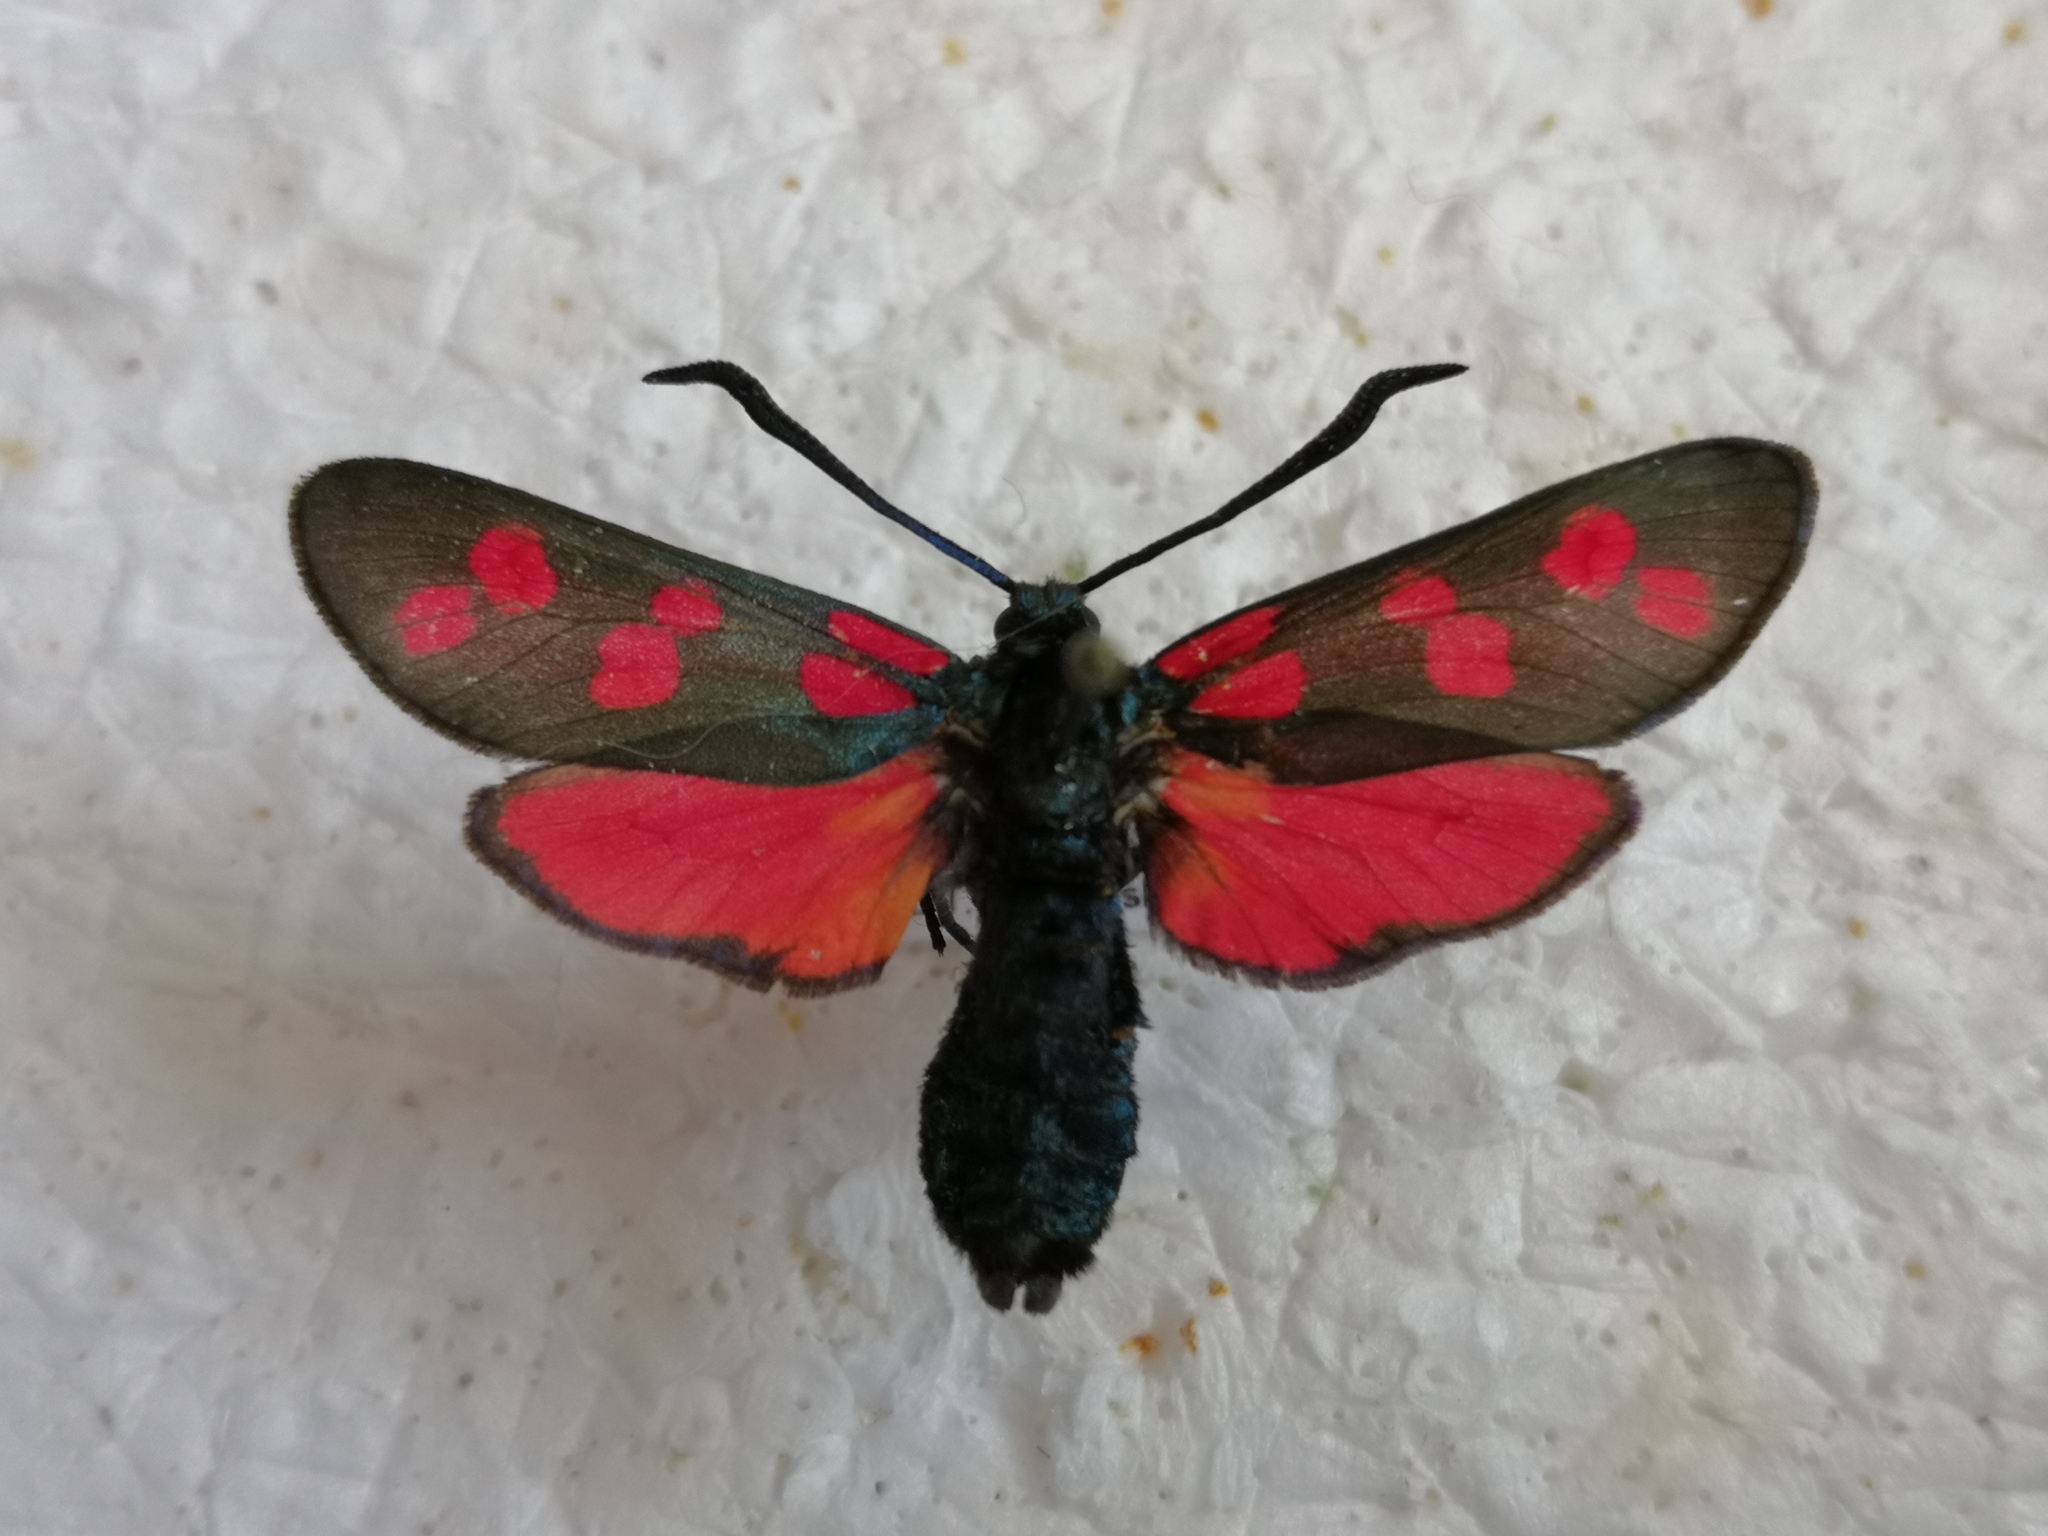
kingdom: Animalia
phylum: Arthropoda
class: Insecta
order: Lepidoptera
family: Zygaenidae
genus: Zygaena
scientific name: Zygaena filipendulae
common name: Six-spot burnet
